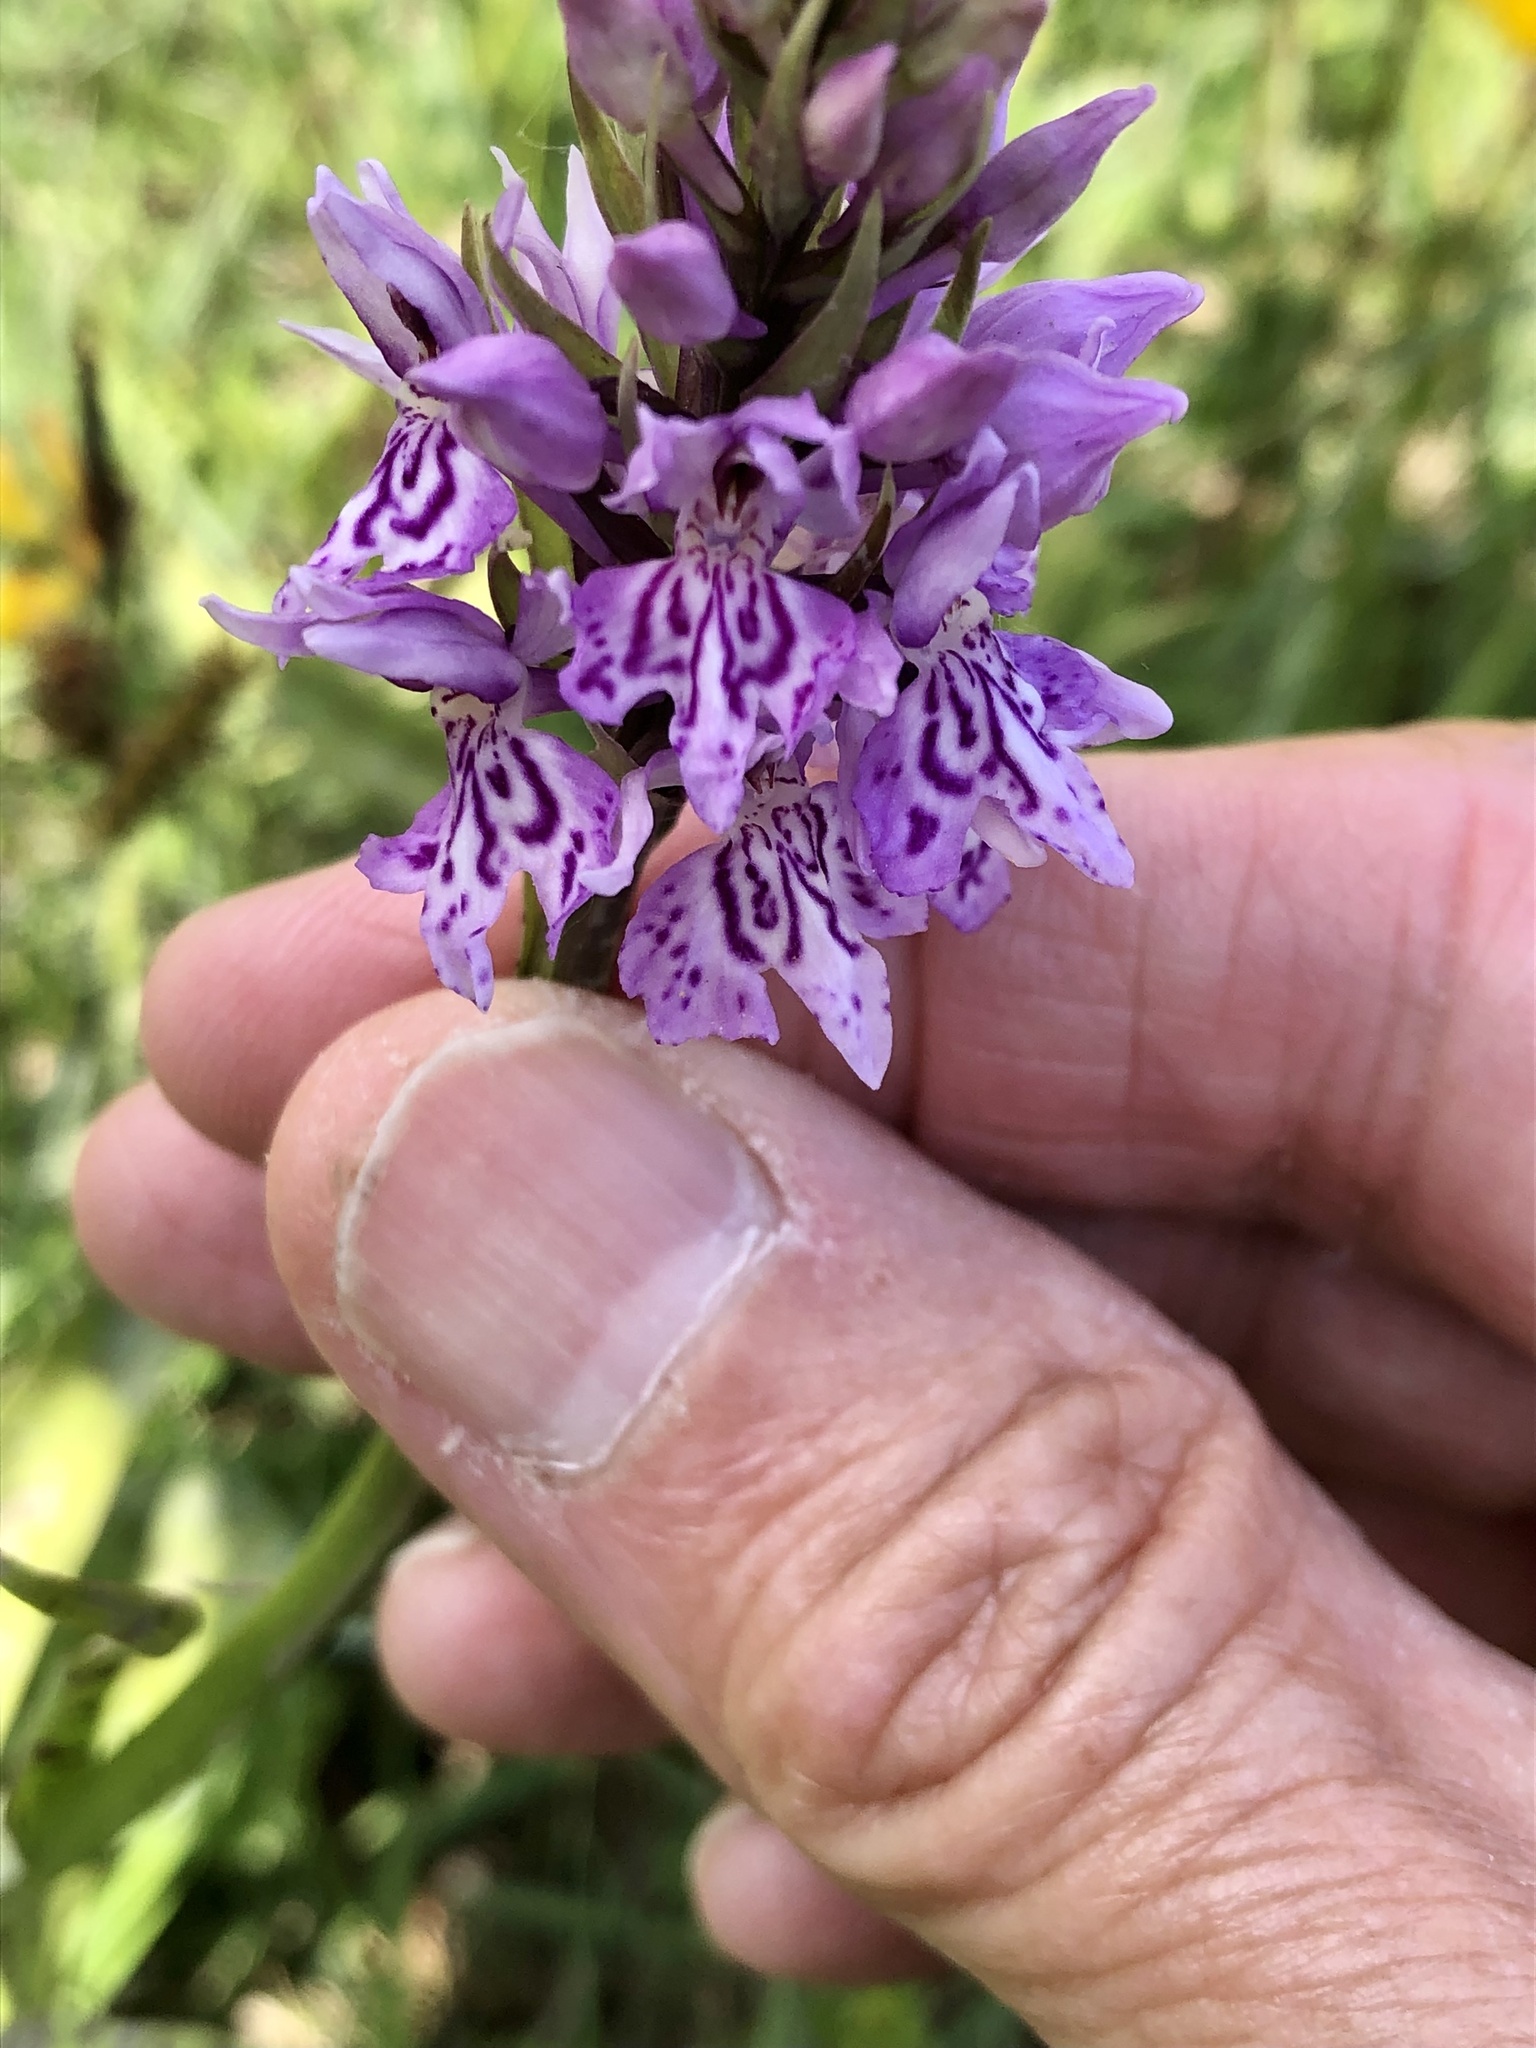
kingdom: Plantae
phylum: Tracheophyta
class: Liliopsida
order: Asparagales
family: Orchidaceae
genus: Dactylorhiza
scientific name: Dactylorhiza maculata
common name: Heath spotted-orchid
